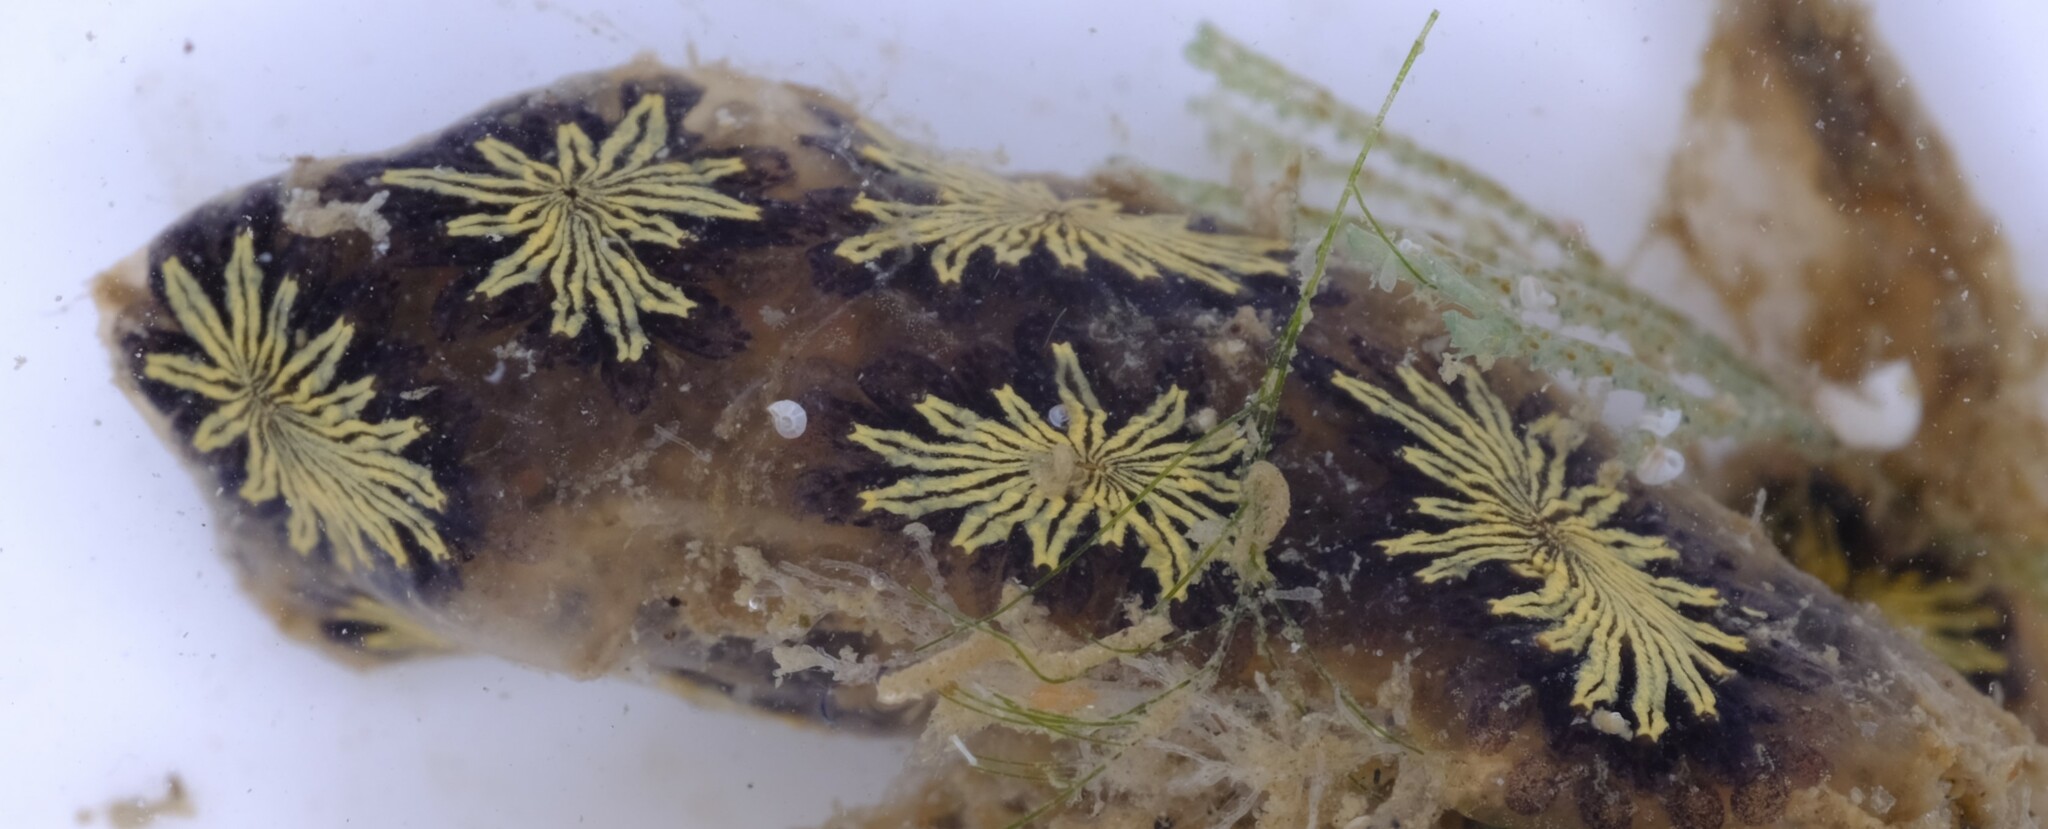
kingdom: Animalia
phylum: Chordata
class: Ascidiacea
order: Stolidobranchia
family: Styelidae
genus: Botryllus
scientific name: Botryllus schlosseri
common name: Golden star tunicate
